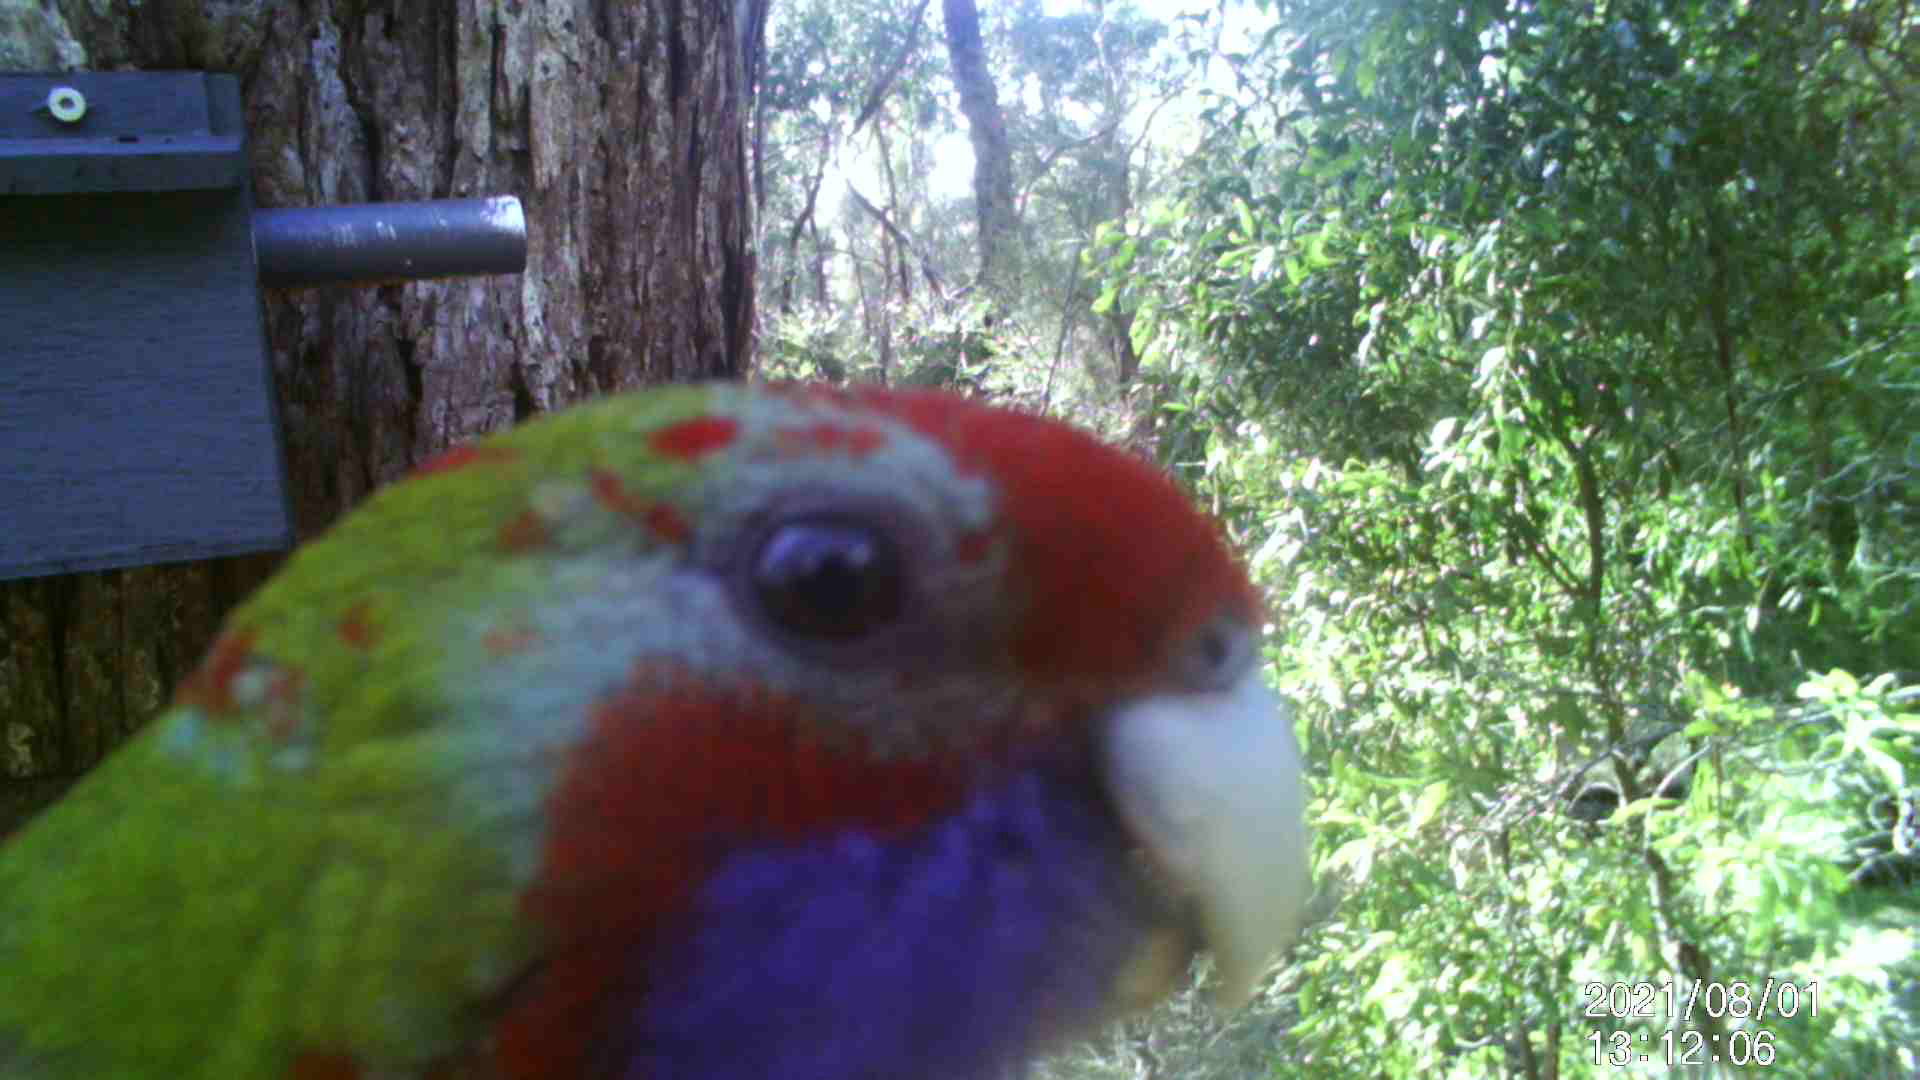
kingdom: Animalia
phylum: Chordata
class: Aves
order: Psittaciformes
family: Psittacidae
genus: Platycercus
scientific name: Platycercus elegans
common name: Crimson rosella
